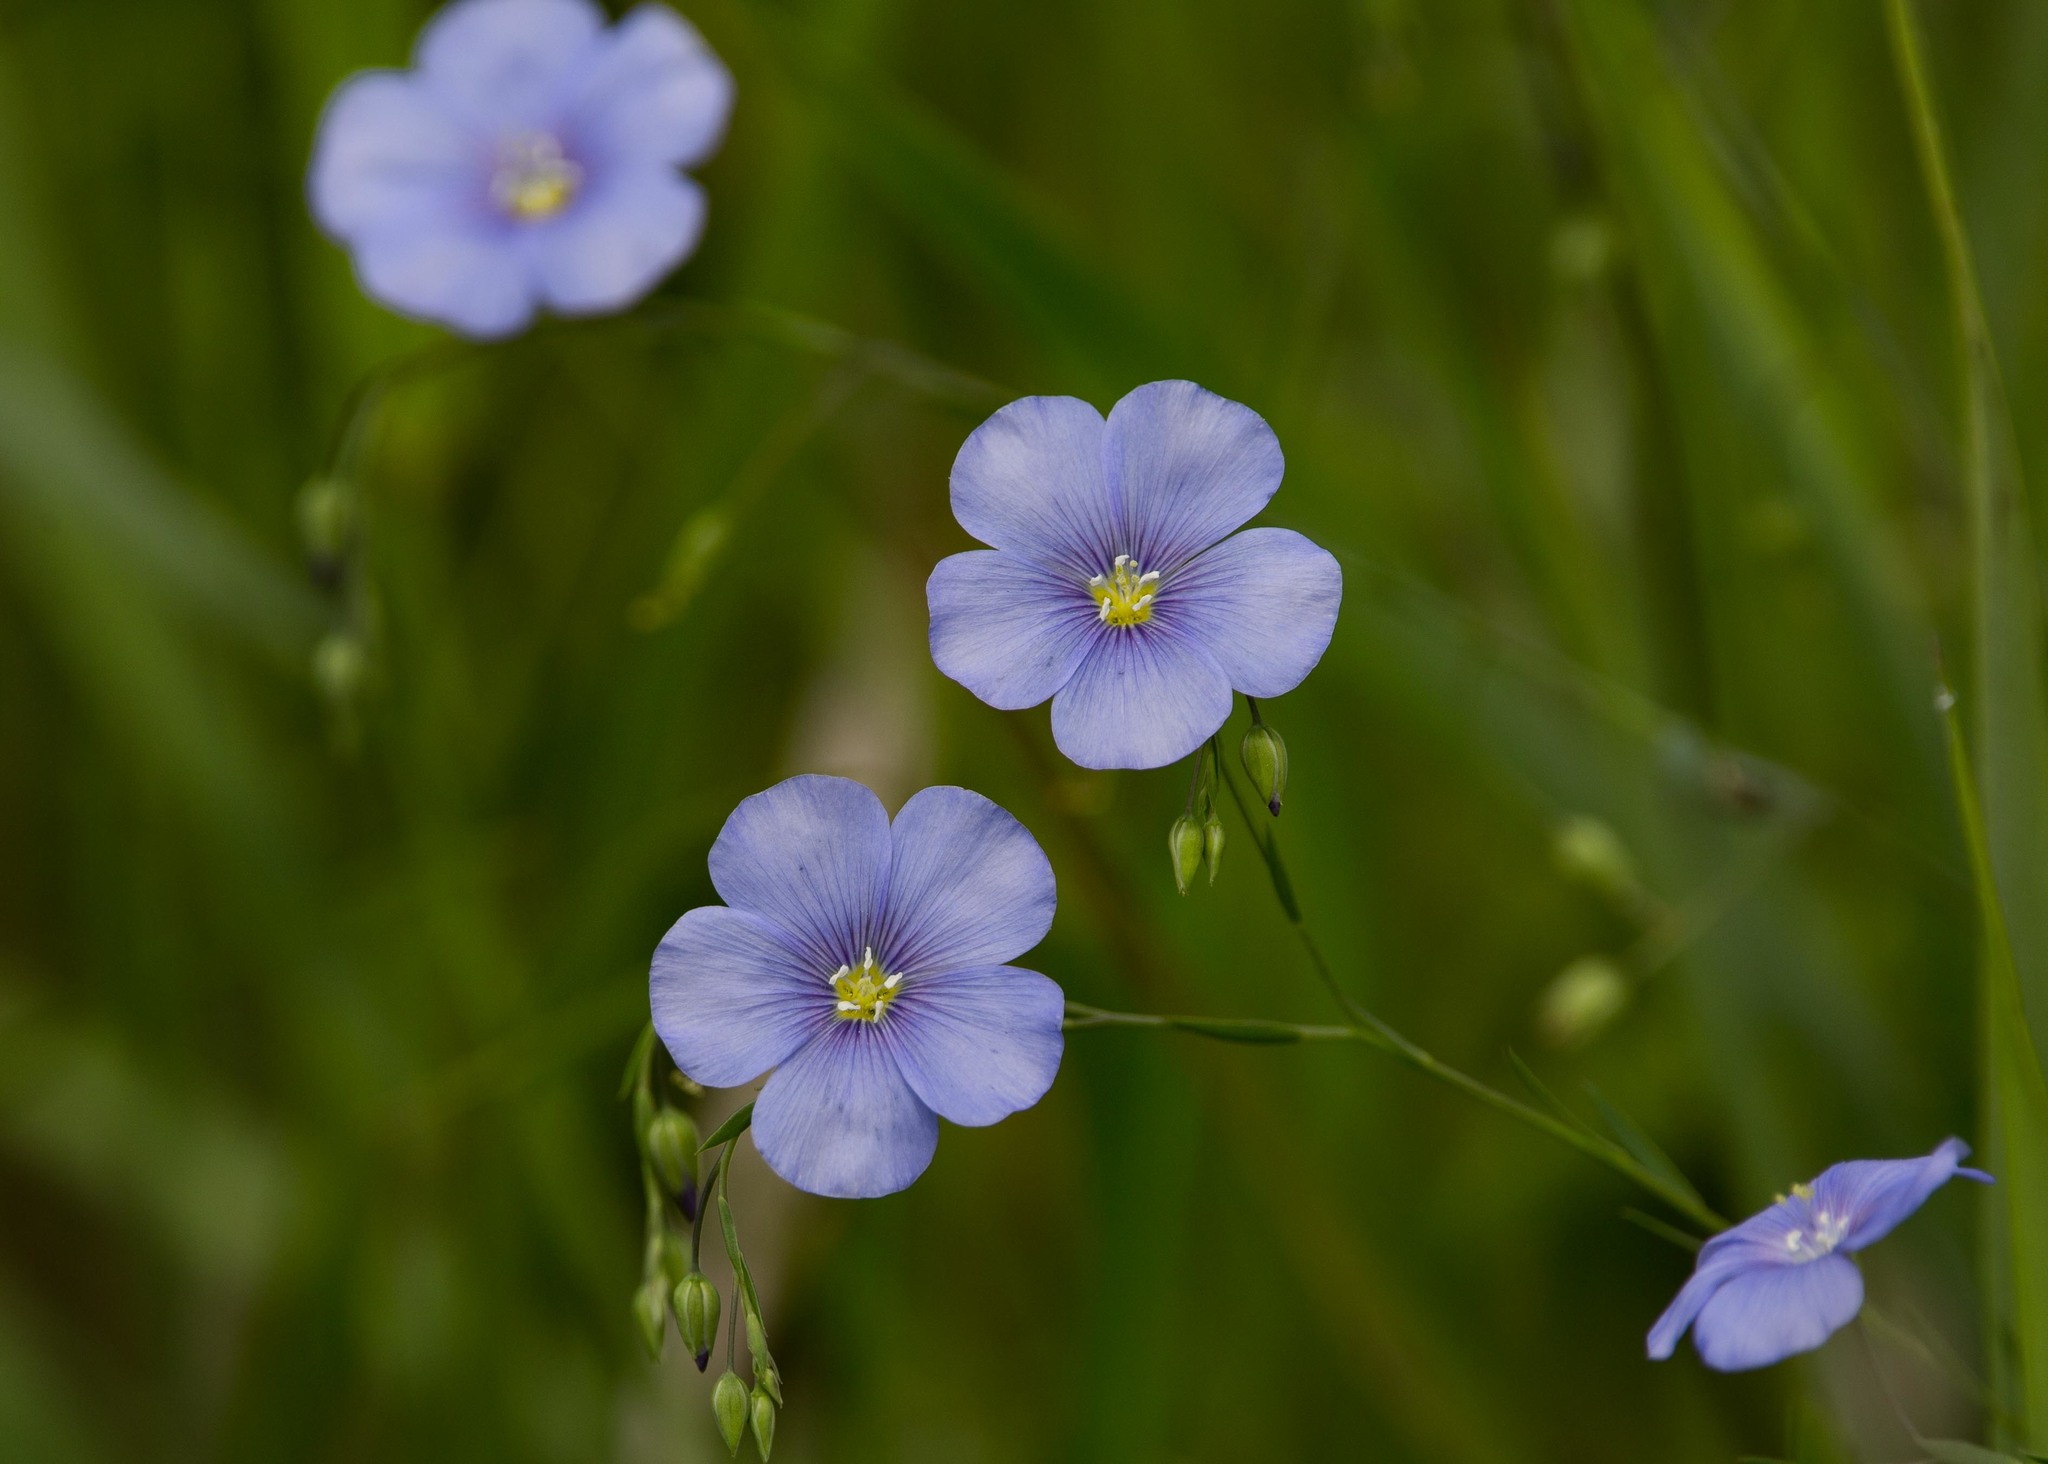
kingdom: Plantae
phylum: Tracheophyta
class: Magnoliopsida
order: Malpighiales
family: Linaceae
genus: Linum
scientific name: Linum perenne
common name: Blue flax
